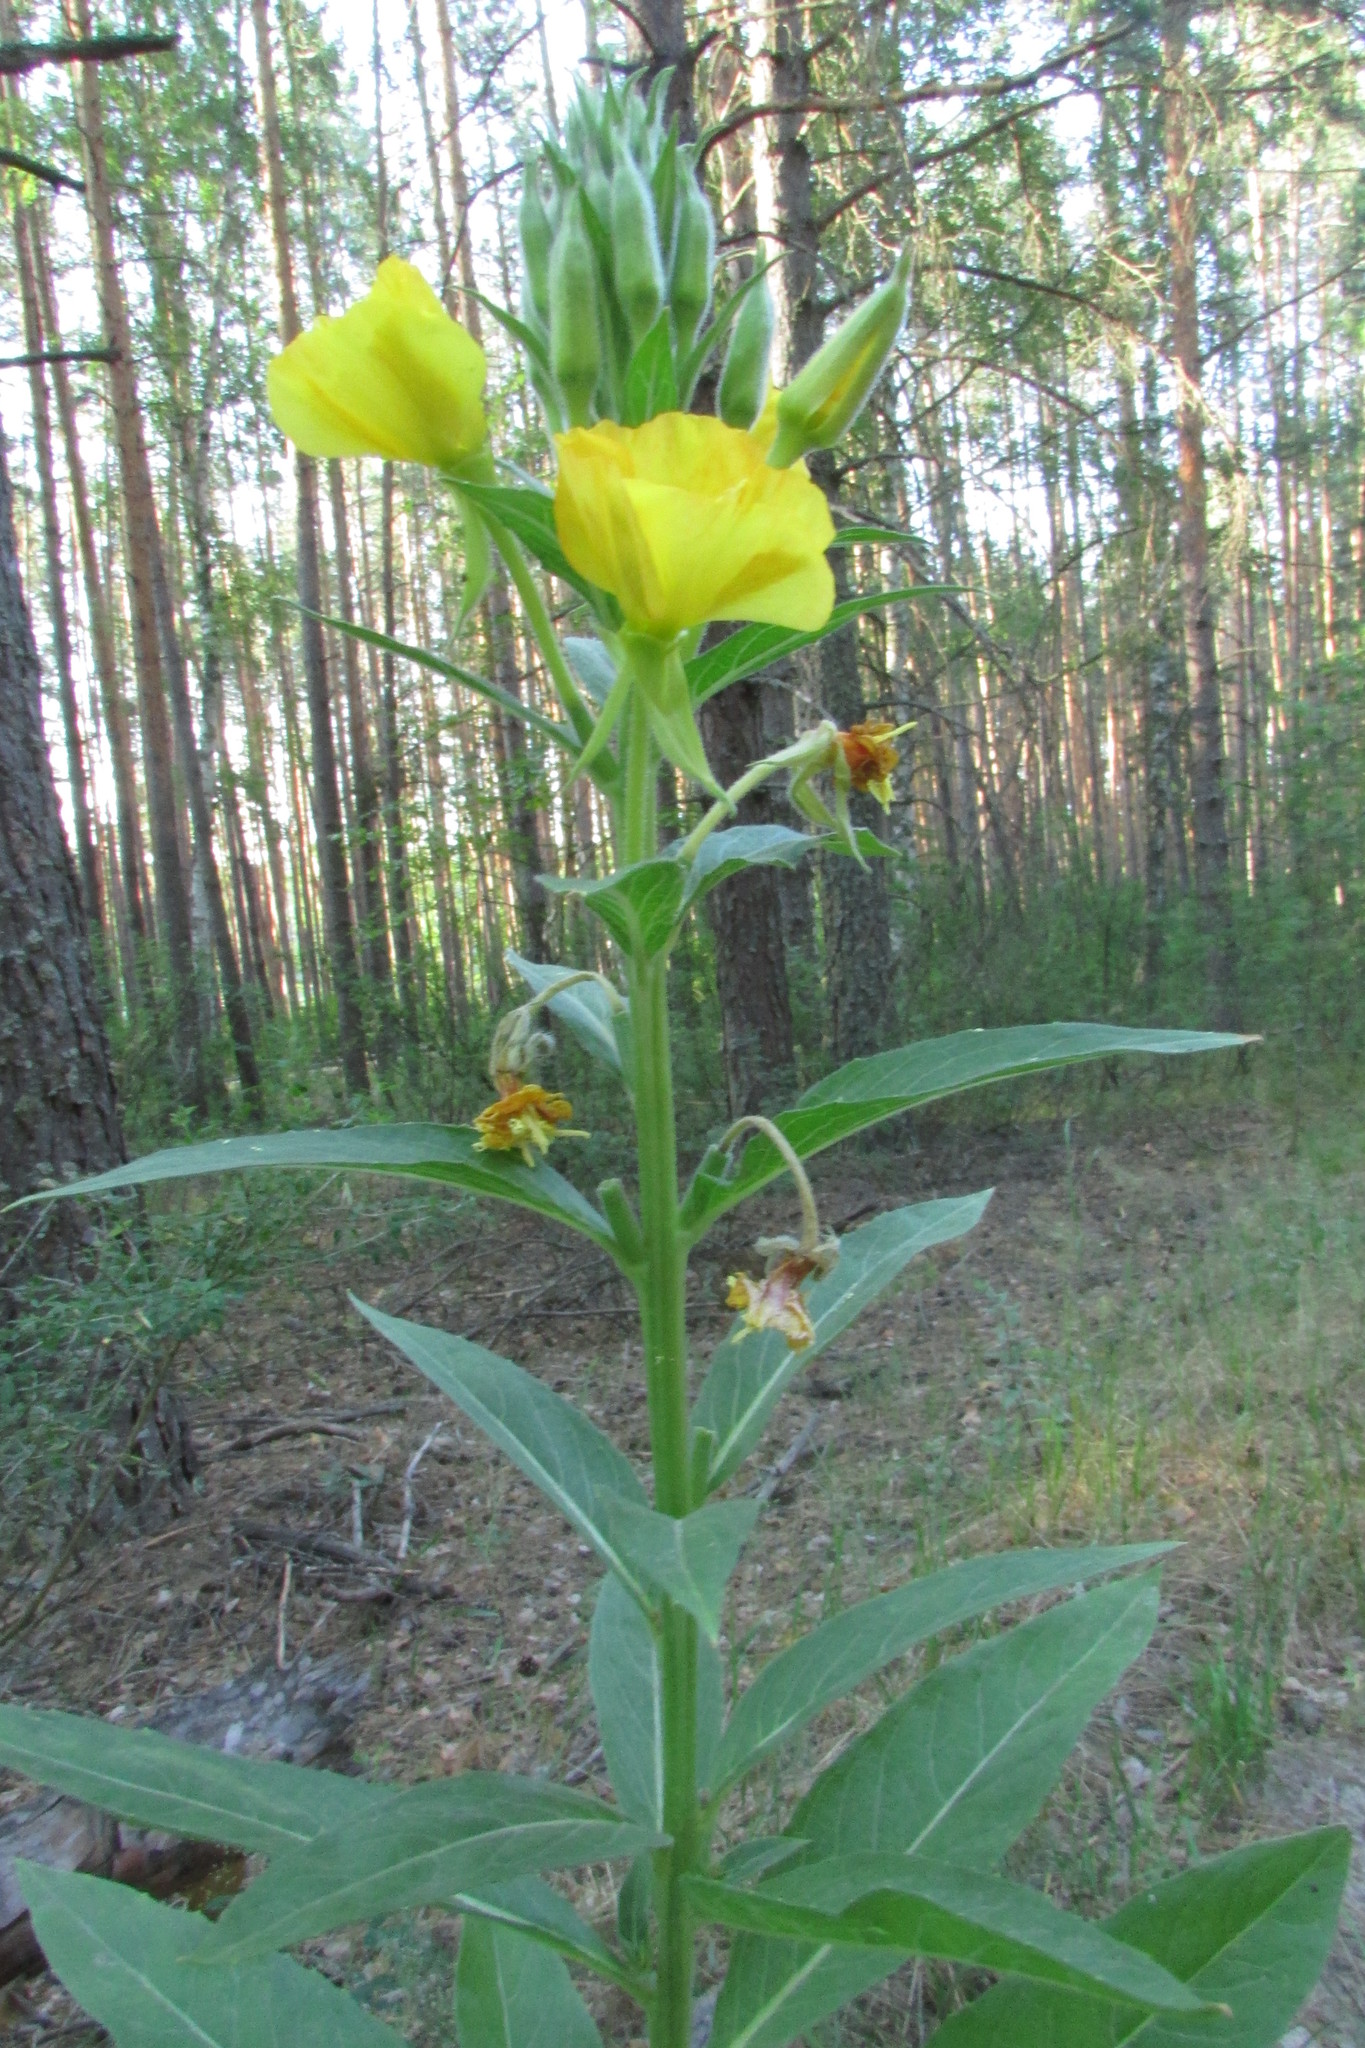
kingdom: Plantae
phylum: Tracheophyta
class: Magnoliopsida
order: Myrtales
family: Onagraceae
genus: Oenothera
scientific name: Oenothera biennis
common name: Common evening-primrose
